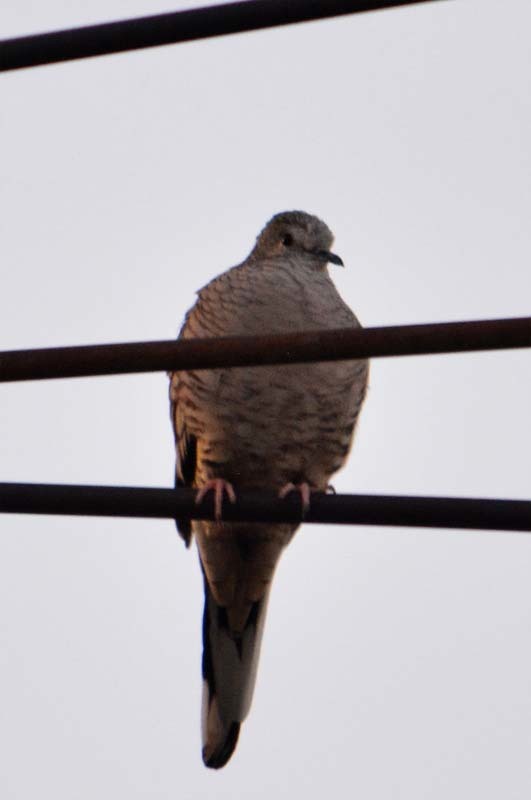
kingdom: Animalia
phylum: Chordata
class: Aves
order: Columbiformes
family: Columbidae
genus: Columbina
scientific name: Columbina inca
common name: Inca dove
